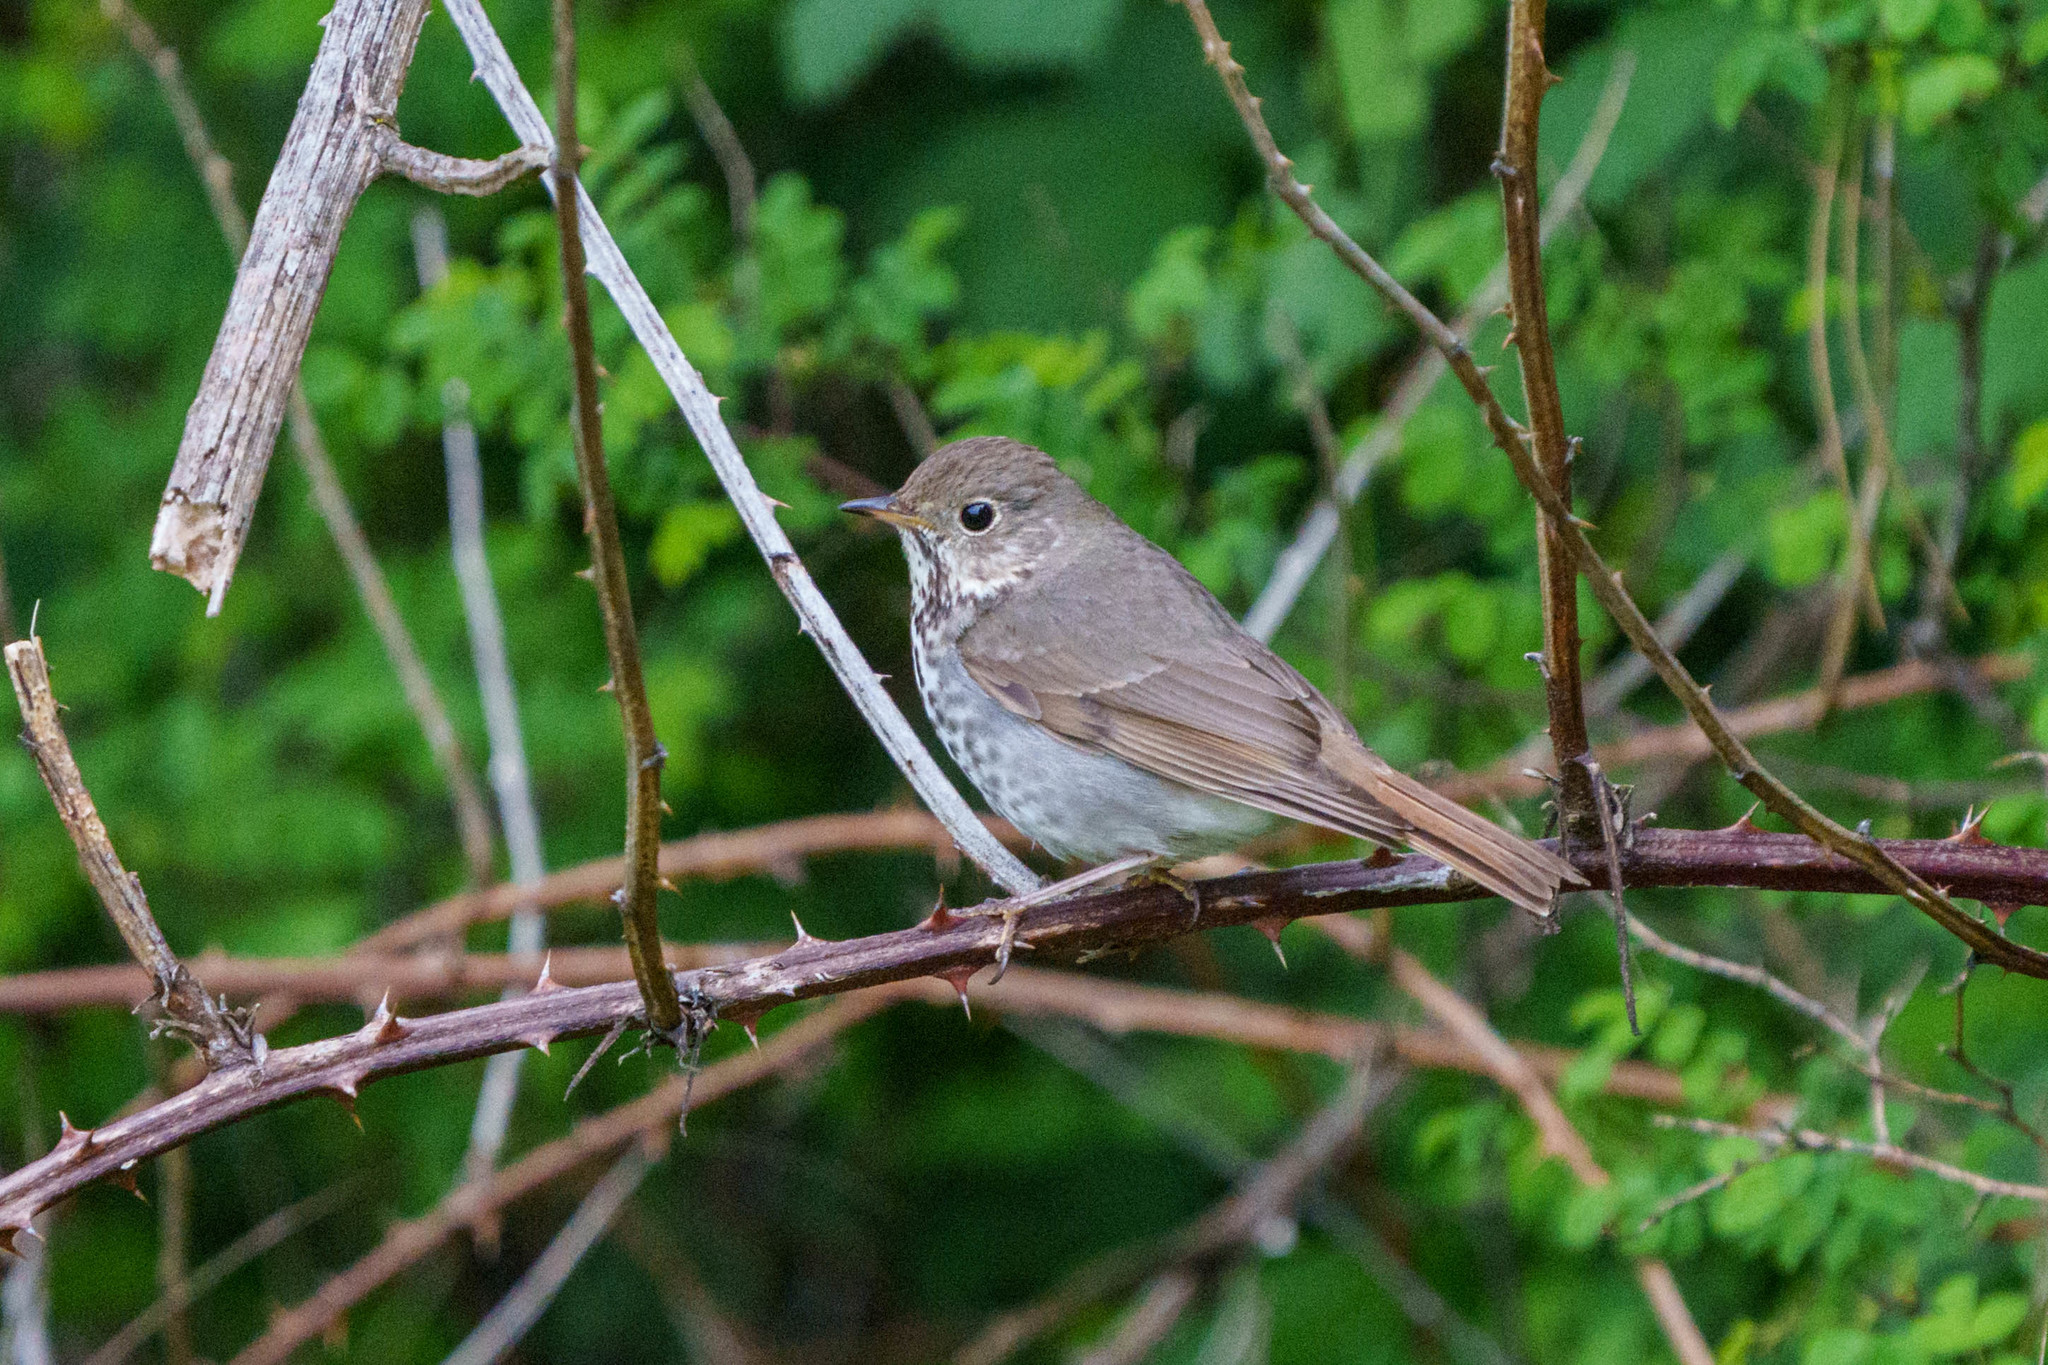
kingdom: Animalia
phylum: Chordata
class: Aves
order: Passeriformes
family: Turdidae
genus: Catharus
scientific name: Catharus guttatus
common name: Hermit thrush
